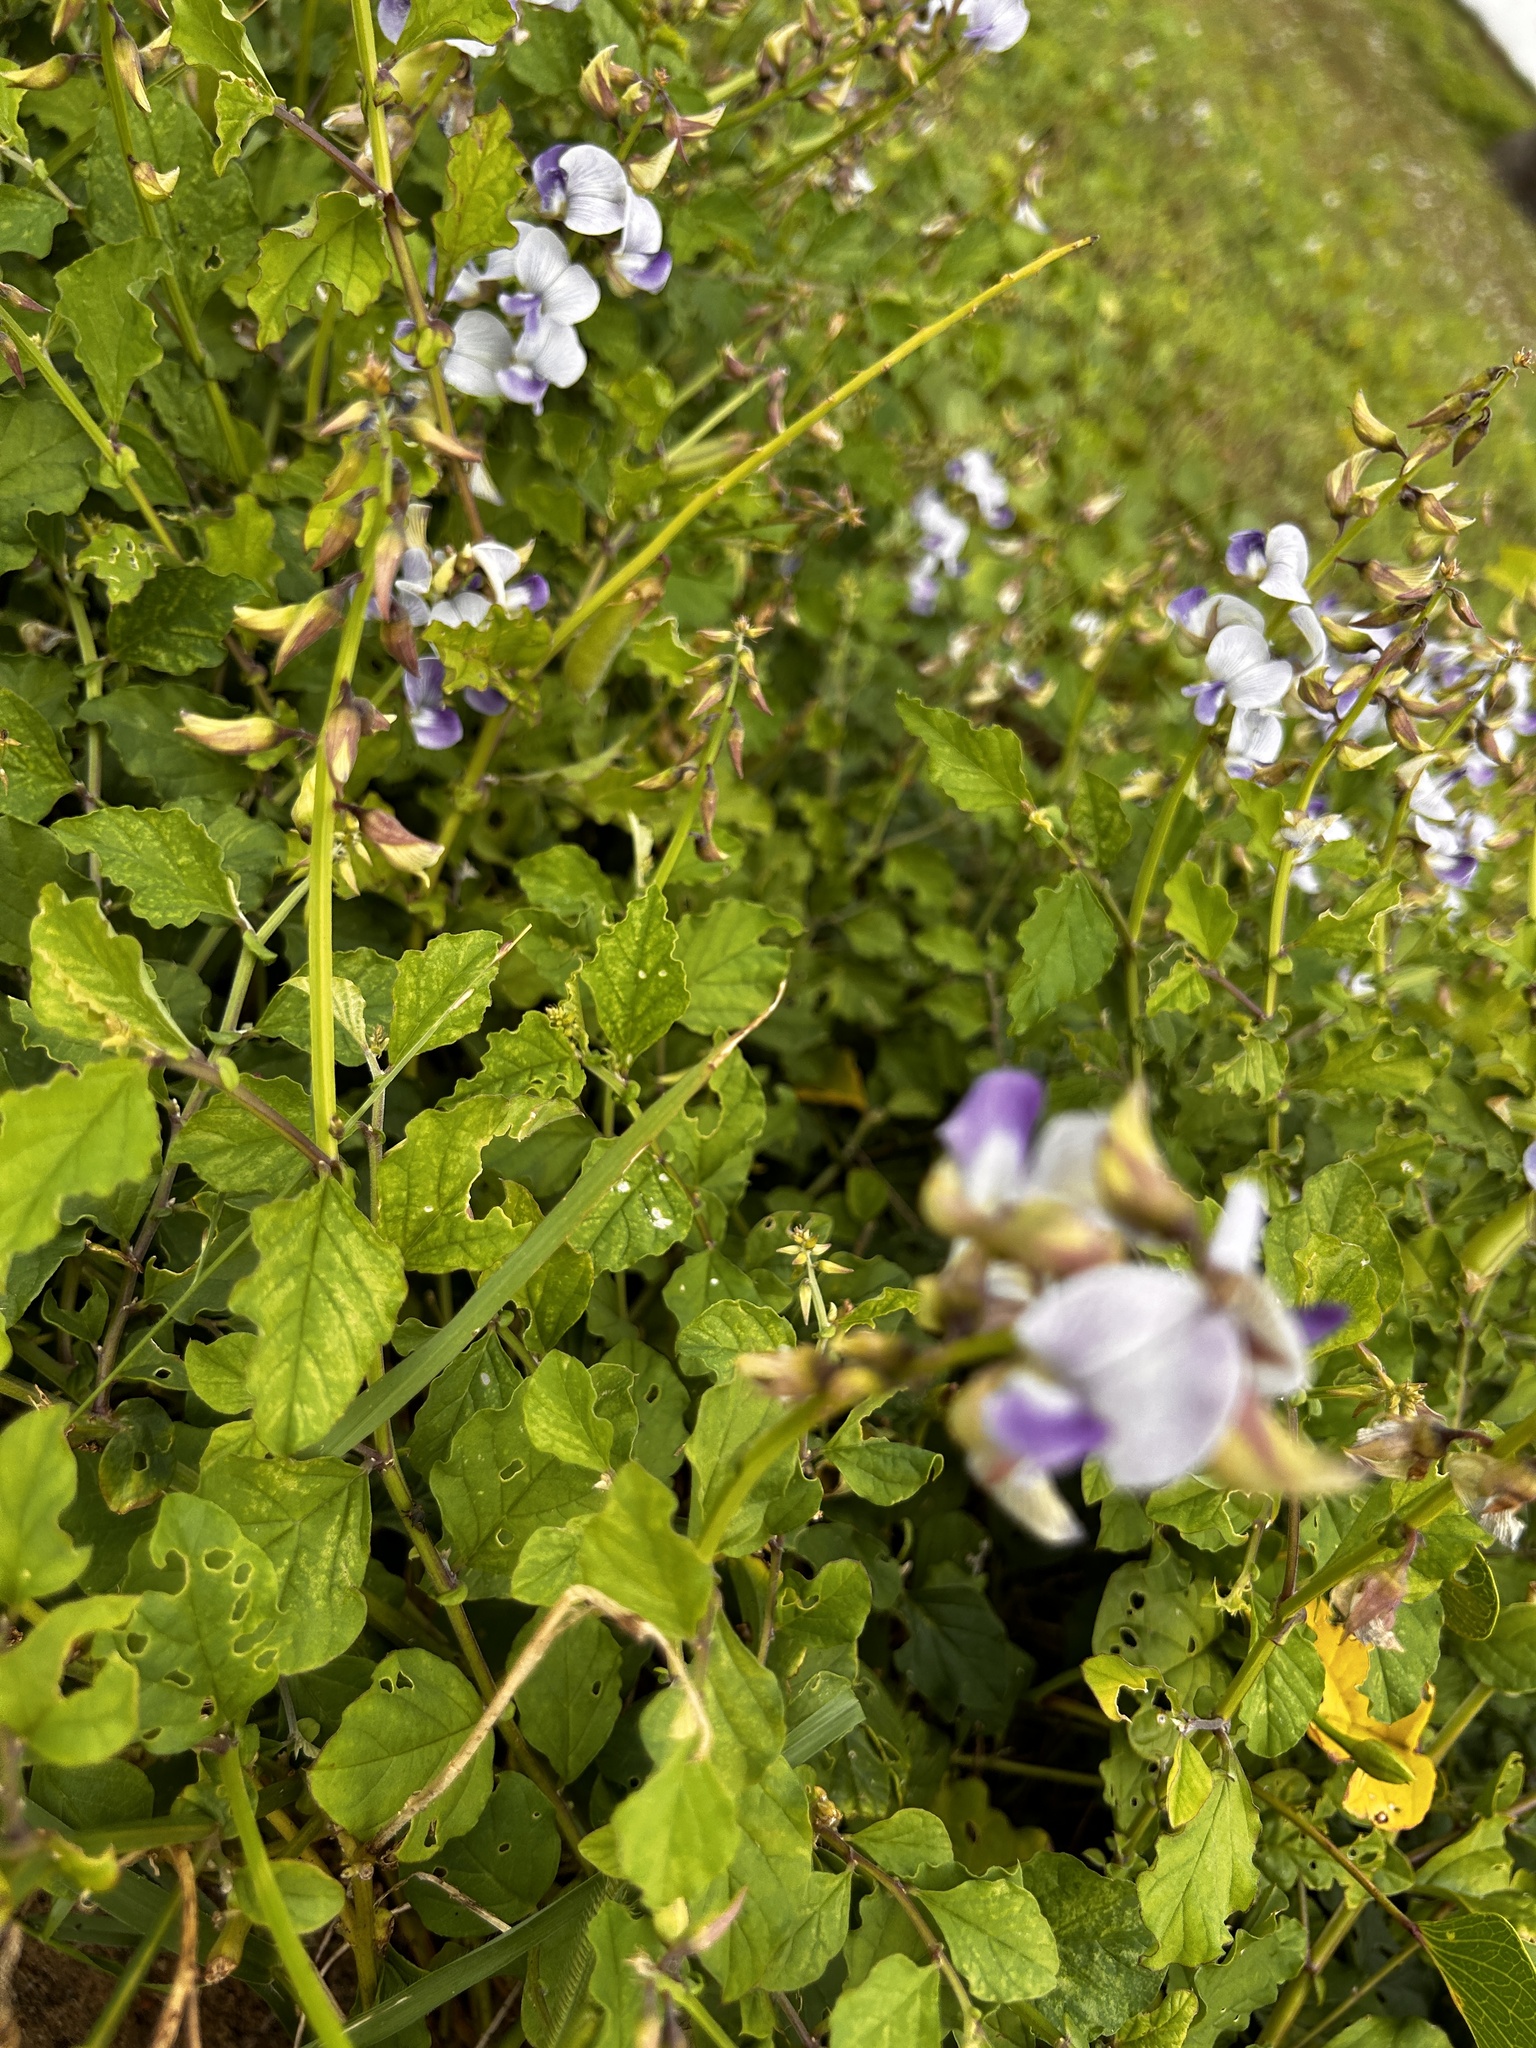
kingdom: Plantae
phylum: Tracheophyta
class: Magnoliopsida
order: Fabales
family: Fabaceae
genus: Crotalaria
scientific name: Crotalaria verrucosa
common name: Blue rattlesnake
